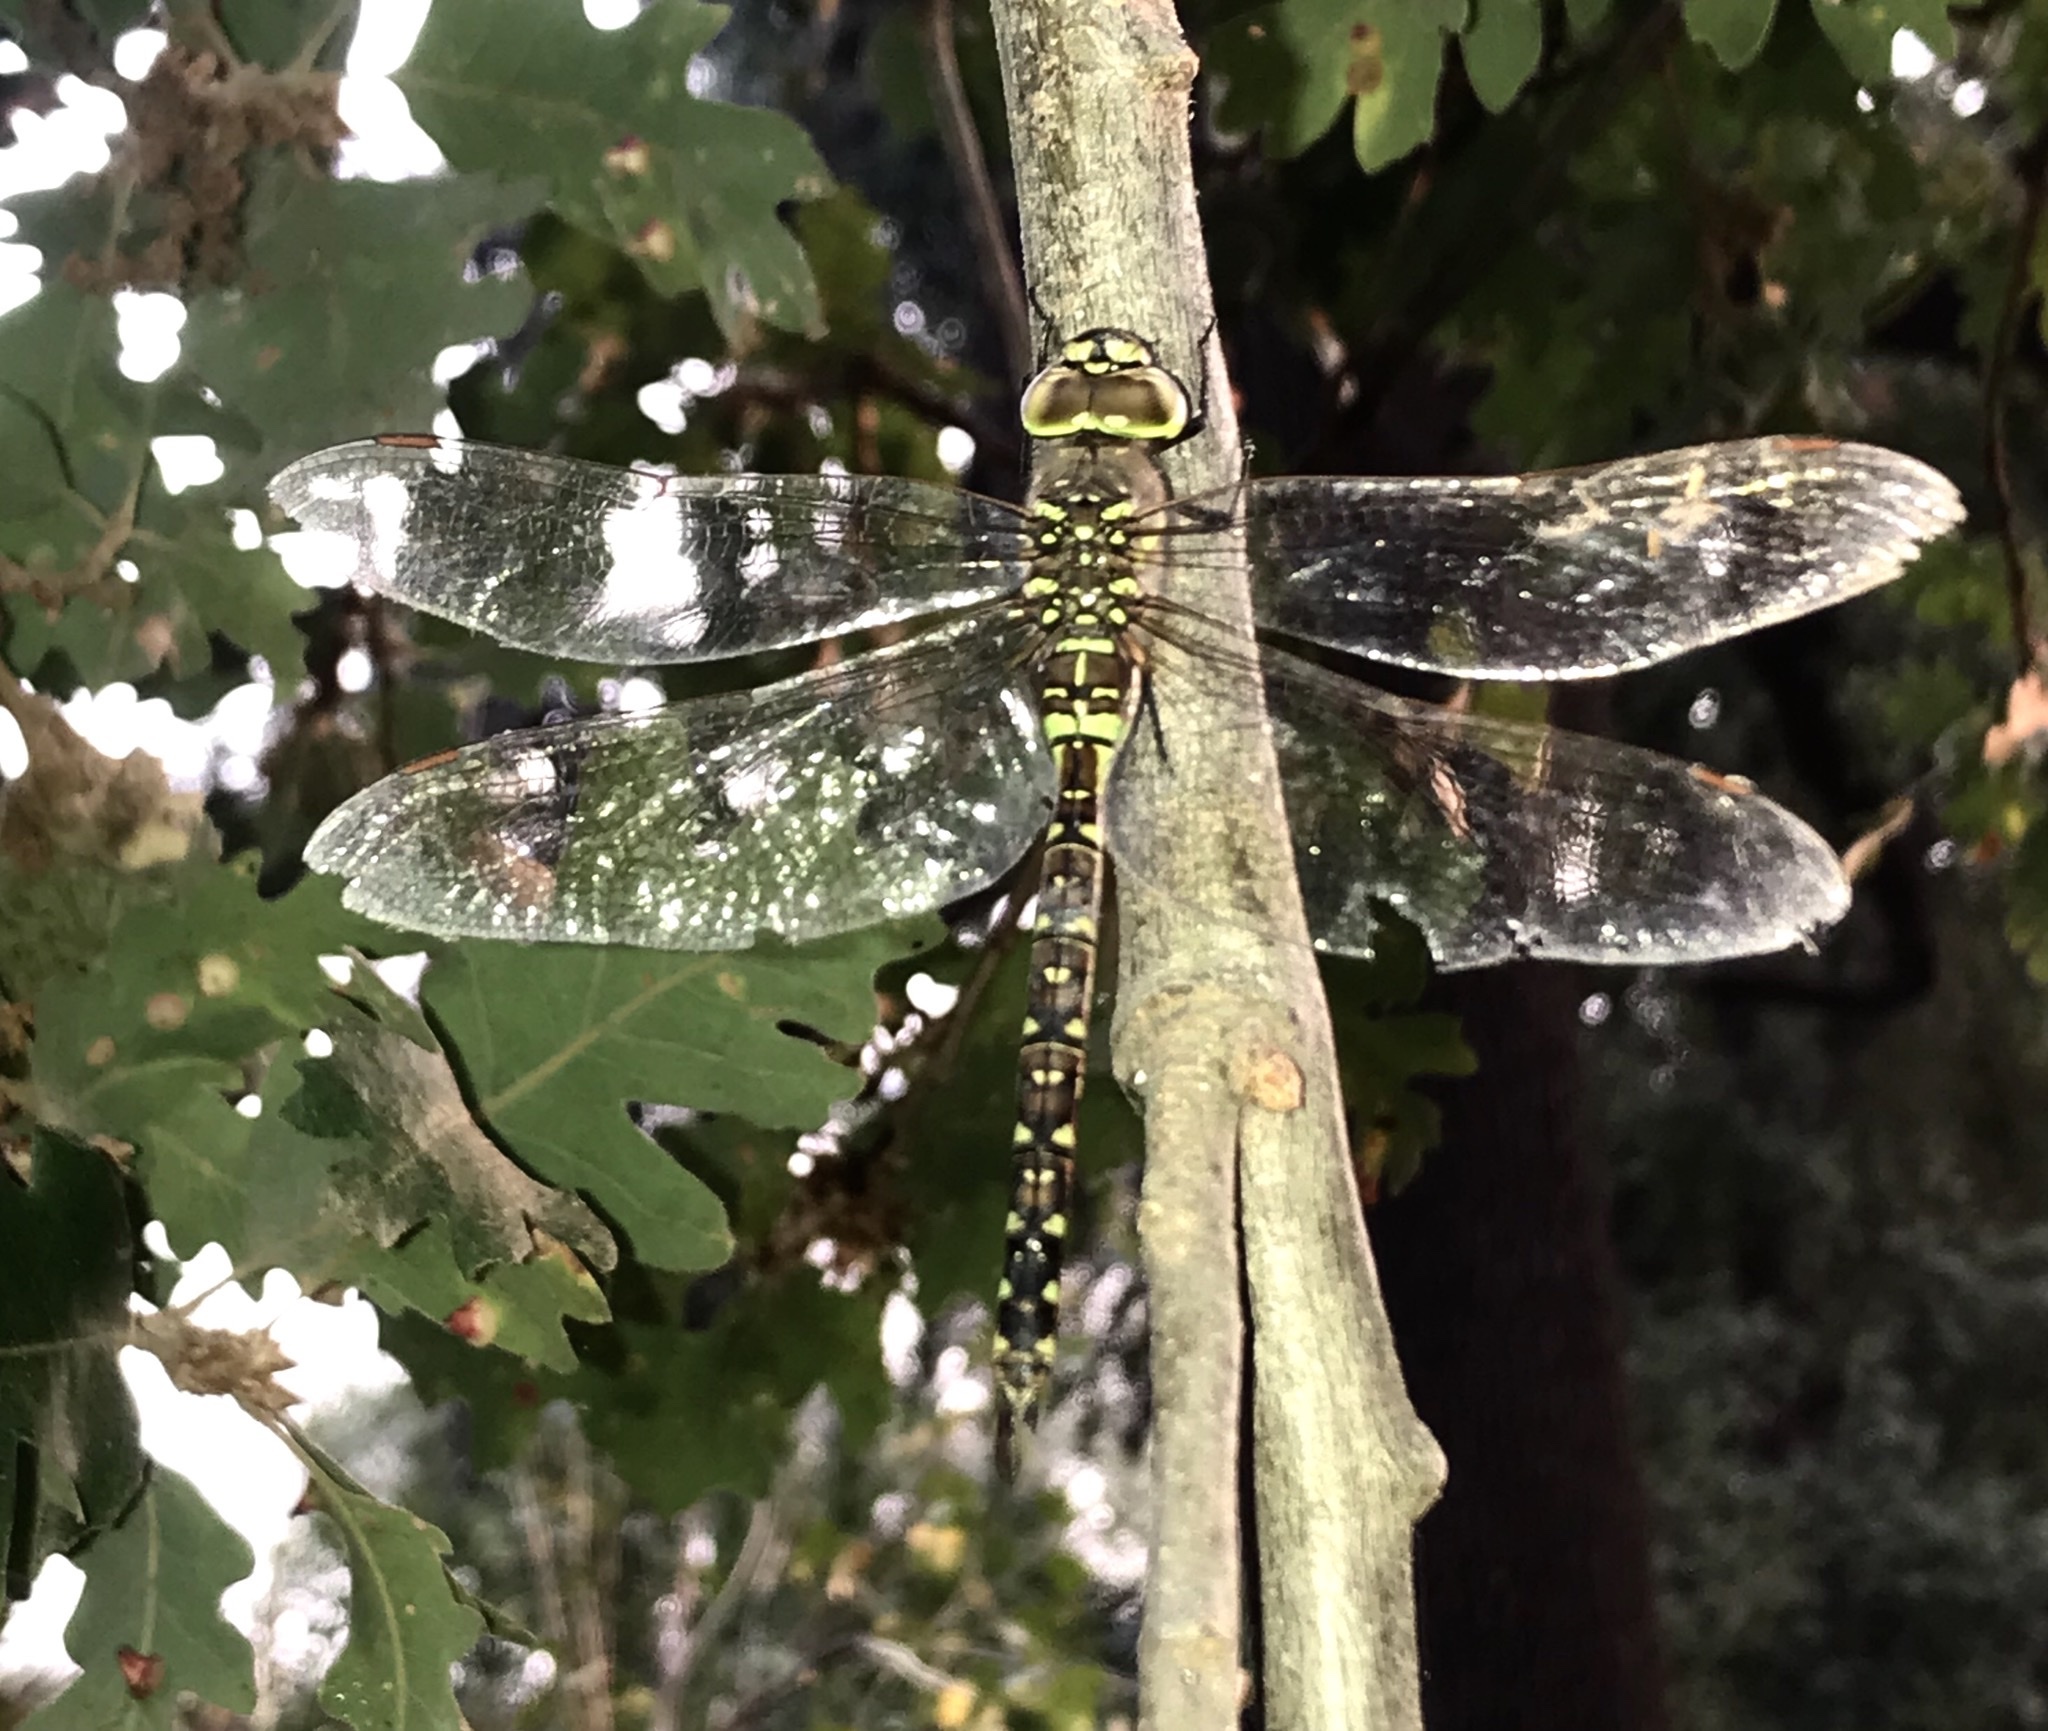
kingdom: Animalia
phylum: Arthropoda
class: Insecta
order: Odonata
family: Aeshnidae
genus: Rhionaeschna
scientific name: Rhionaeschna multicolor
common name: Blue-eyed darner
